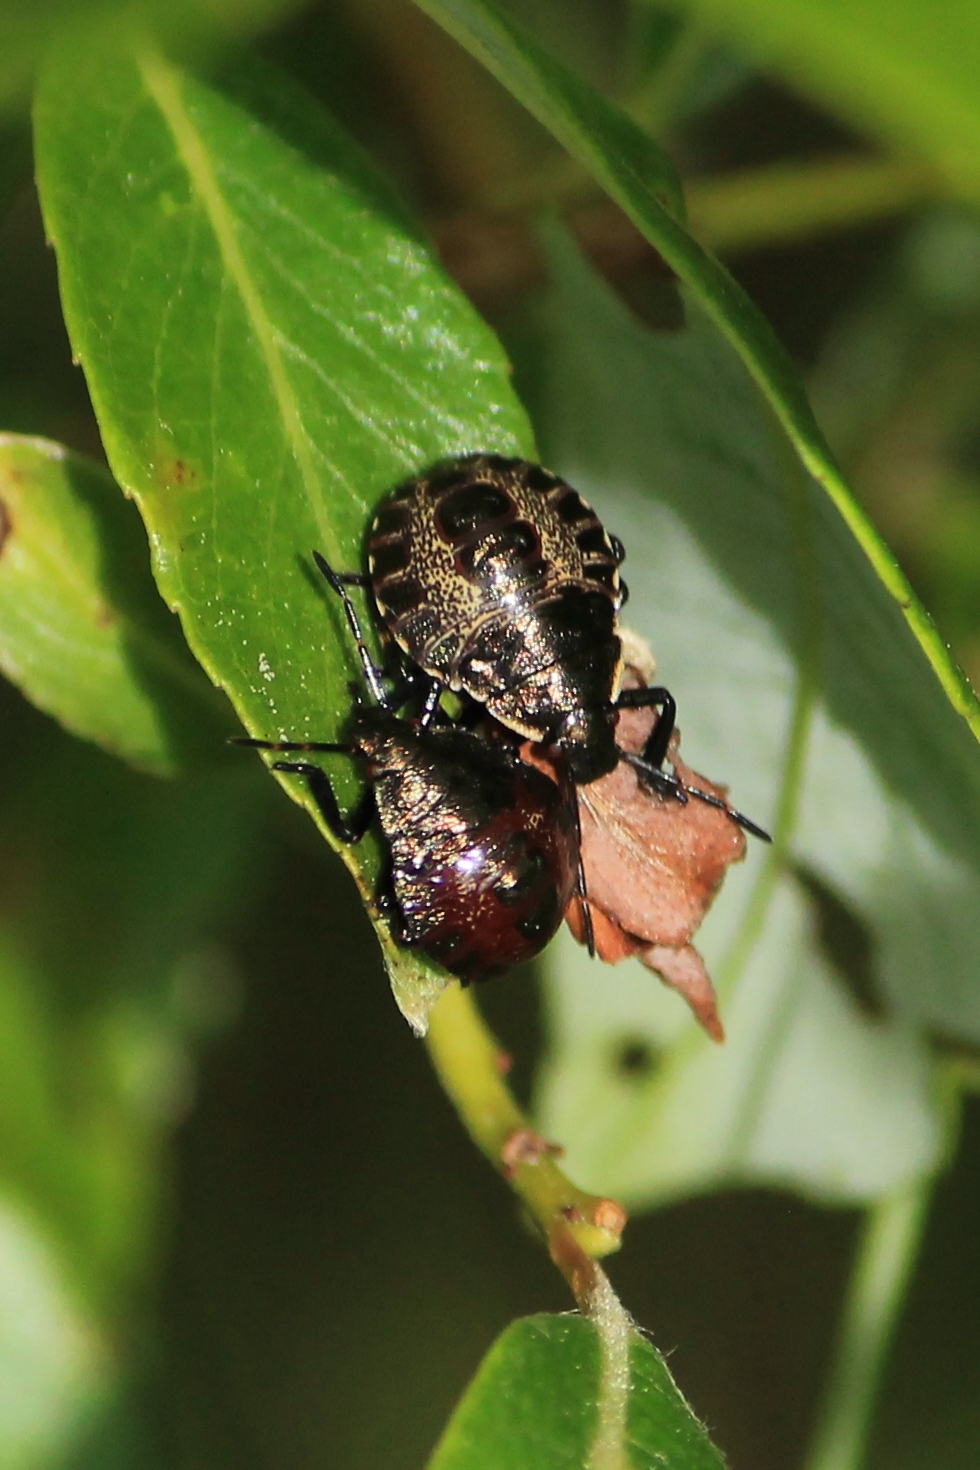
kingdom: Animalia
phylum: Arthropoda
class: Insecta
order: Hemiptera
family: Pentatomidae
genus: Picromerus
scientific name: Picromerus bidens
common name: Spiked shieldbug
